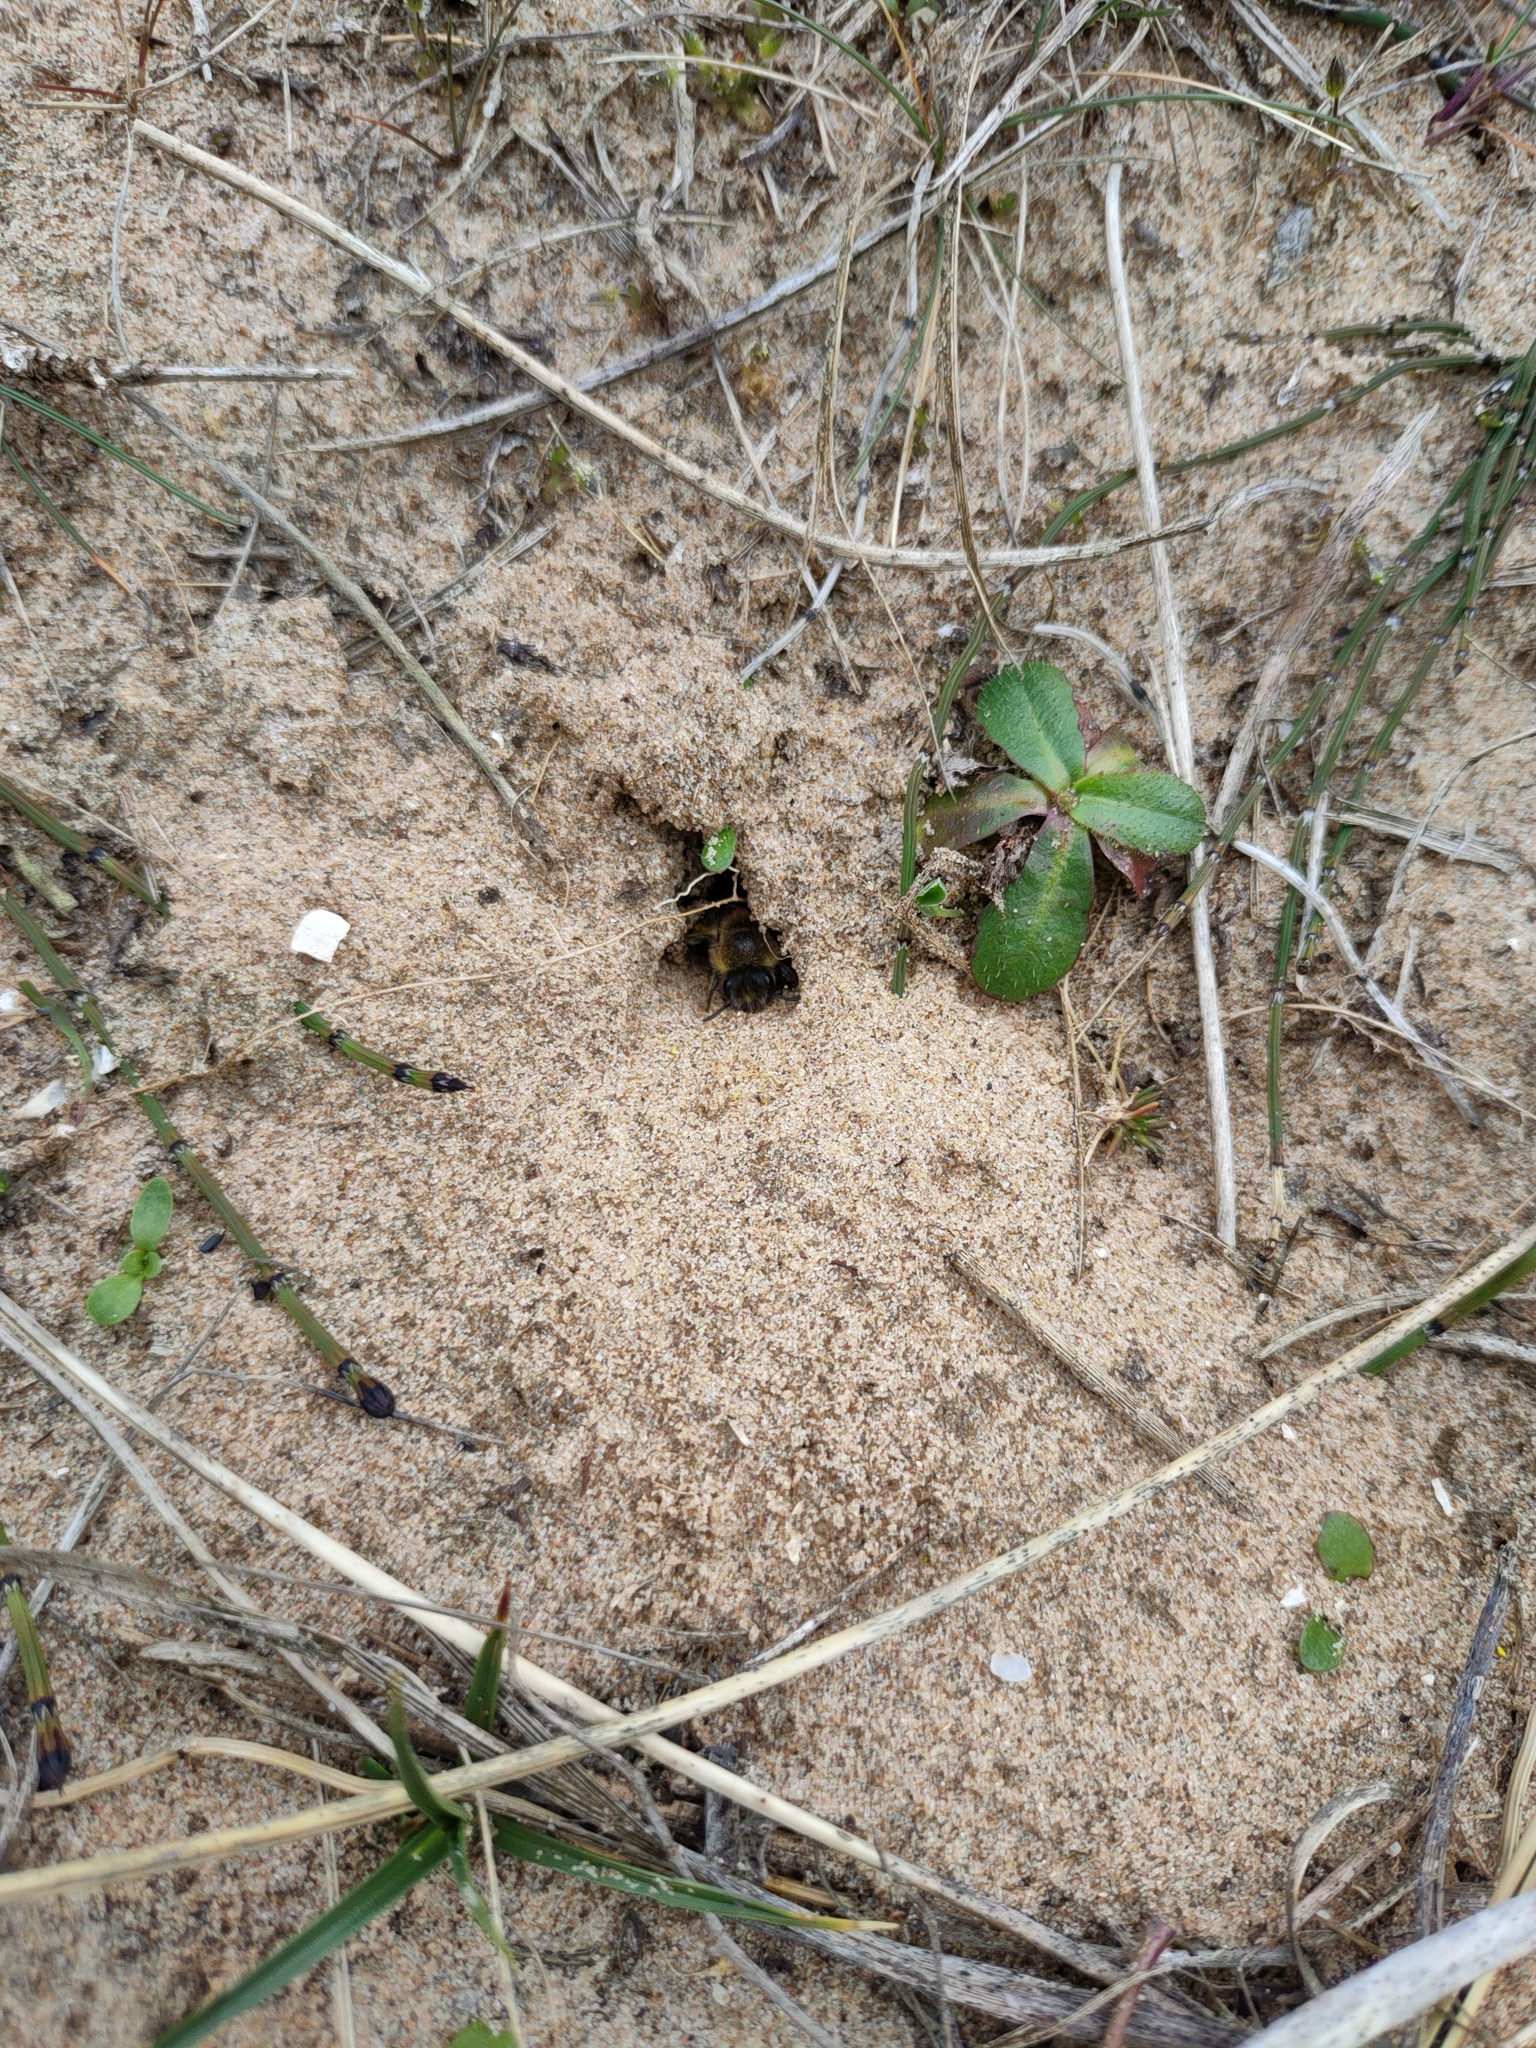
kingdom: Animalia
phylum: Arthropoda
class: Insecta
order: Hymenoptera
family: Colletidae
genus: Colletes
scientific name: Colletes cunicularius
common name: Early colletes
